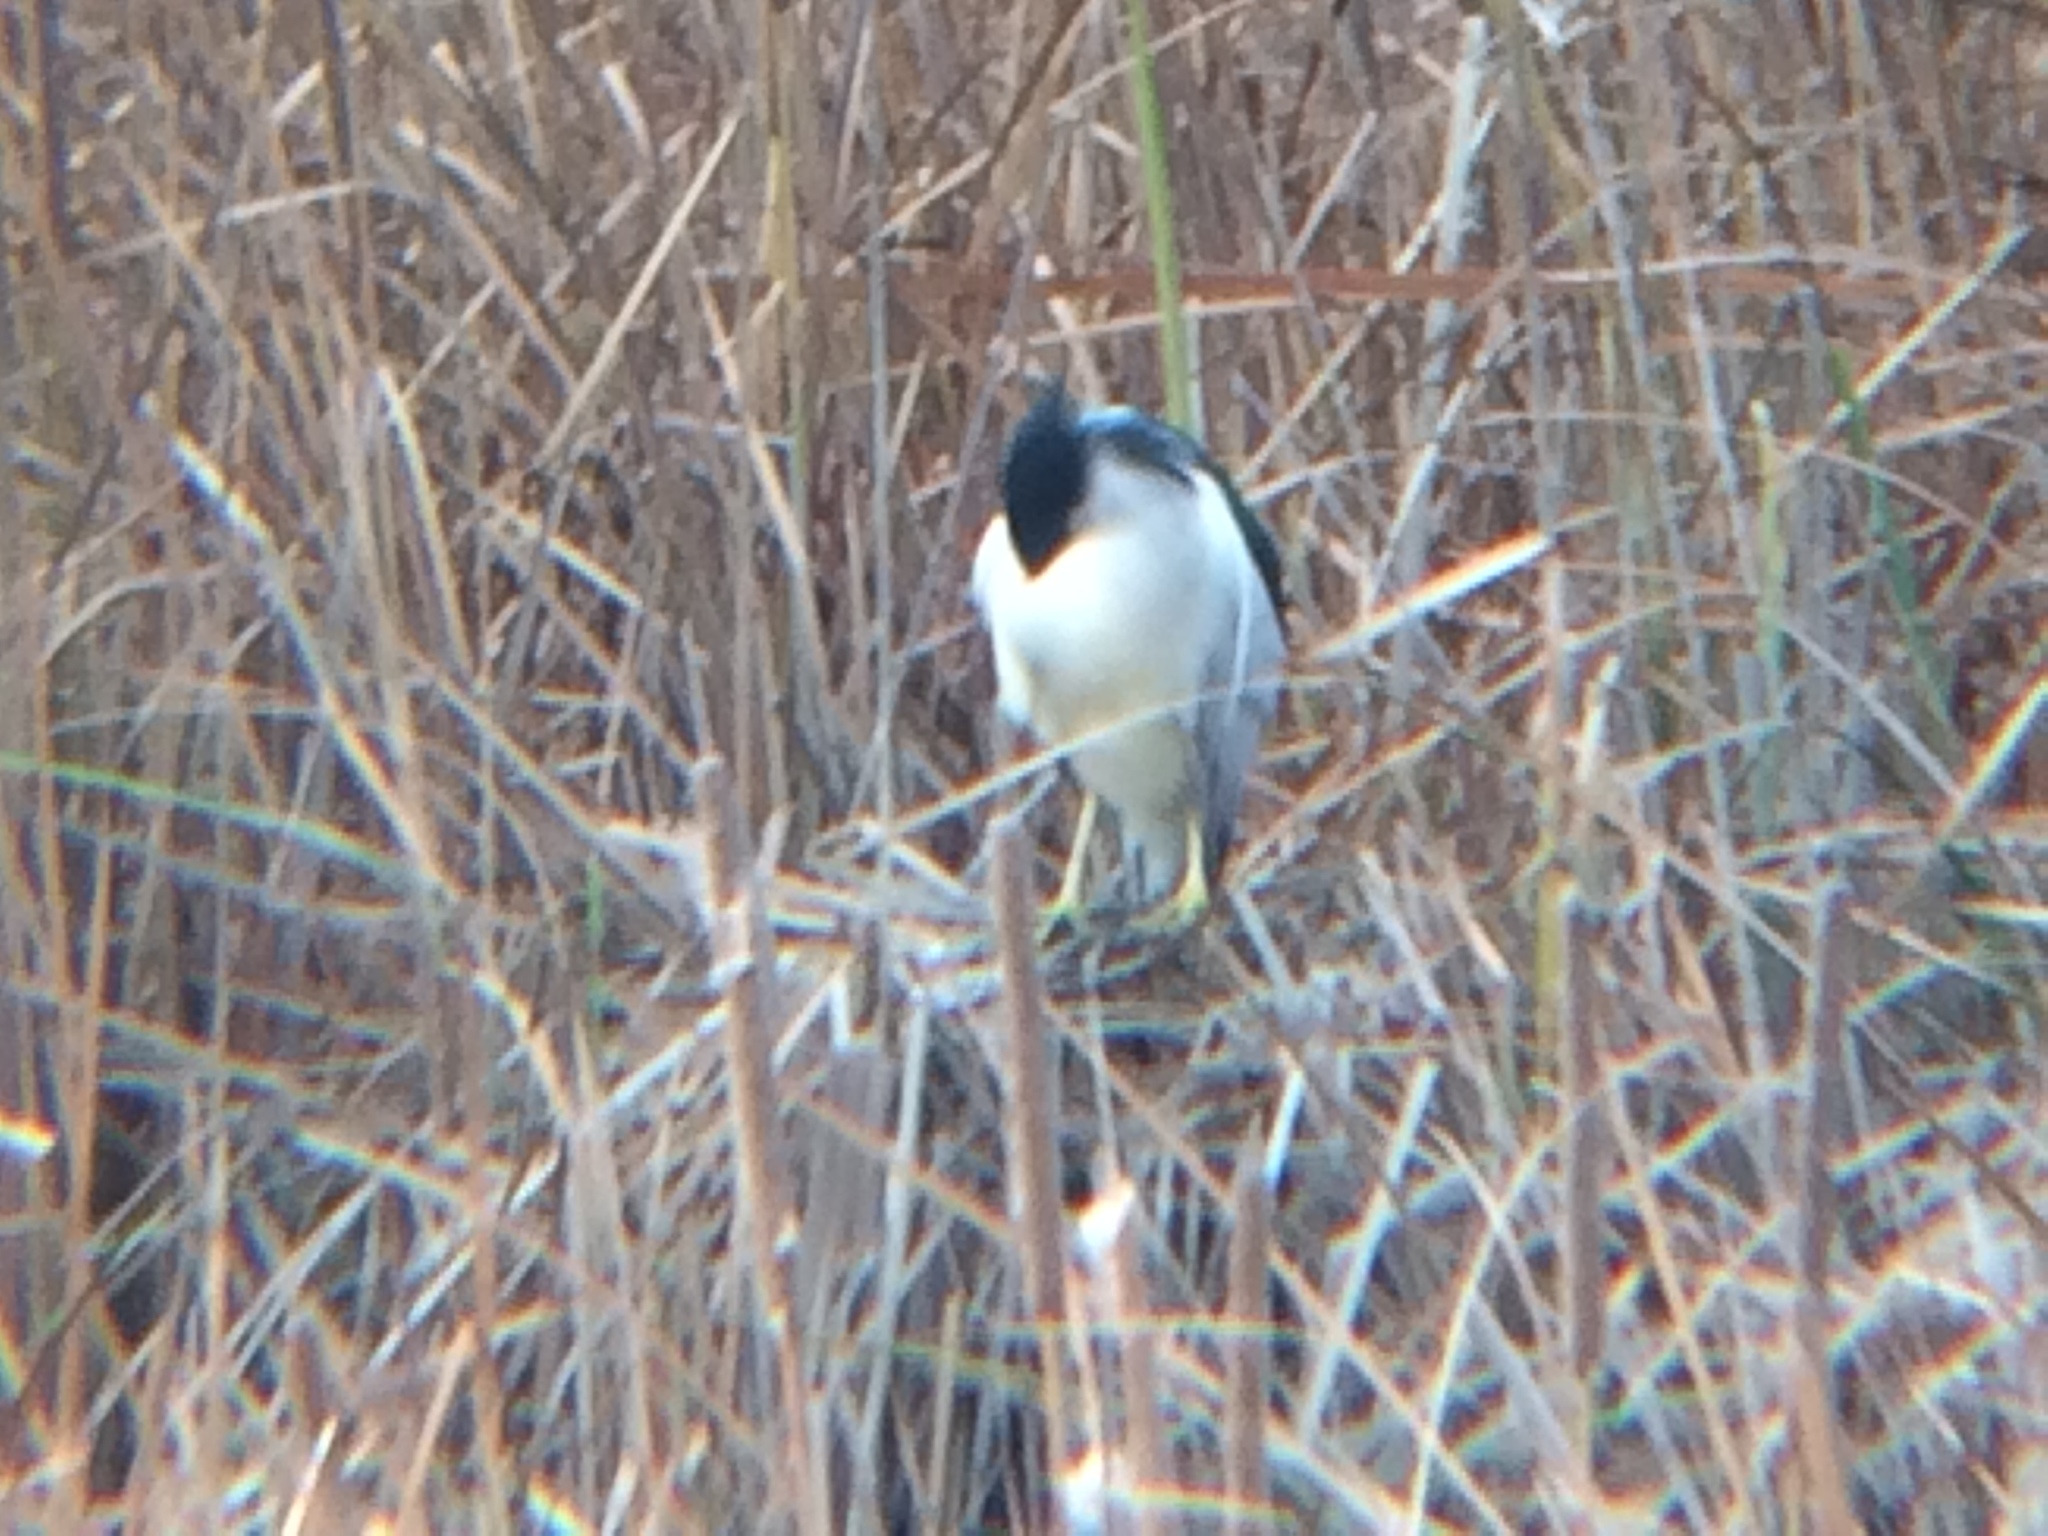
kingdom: Animalia
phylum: Chordata
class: Aves
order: Pelecaniformes
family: Ardeidae
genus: Nycticorax
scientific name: Nycticorax nycticorax
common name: Black-crowned night heron
